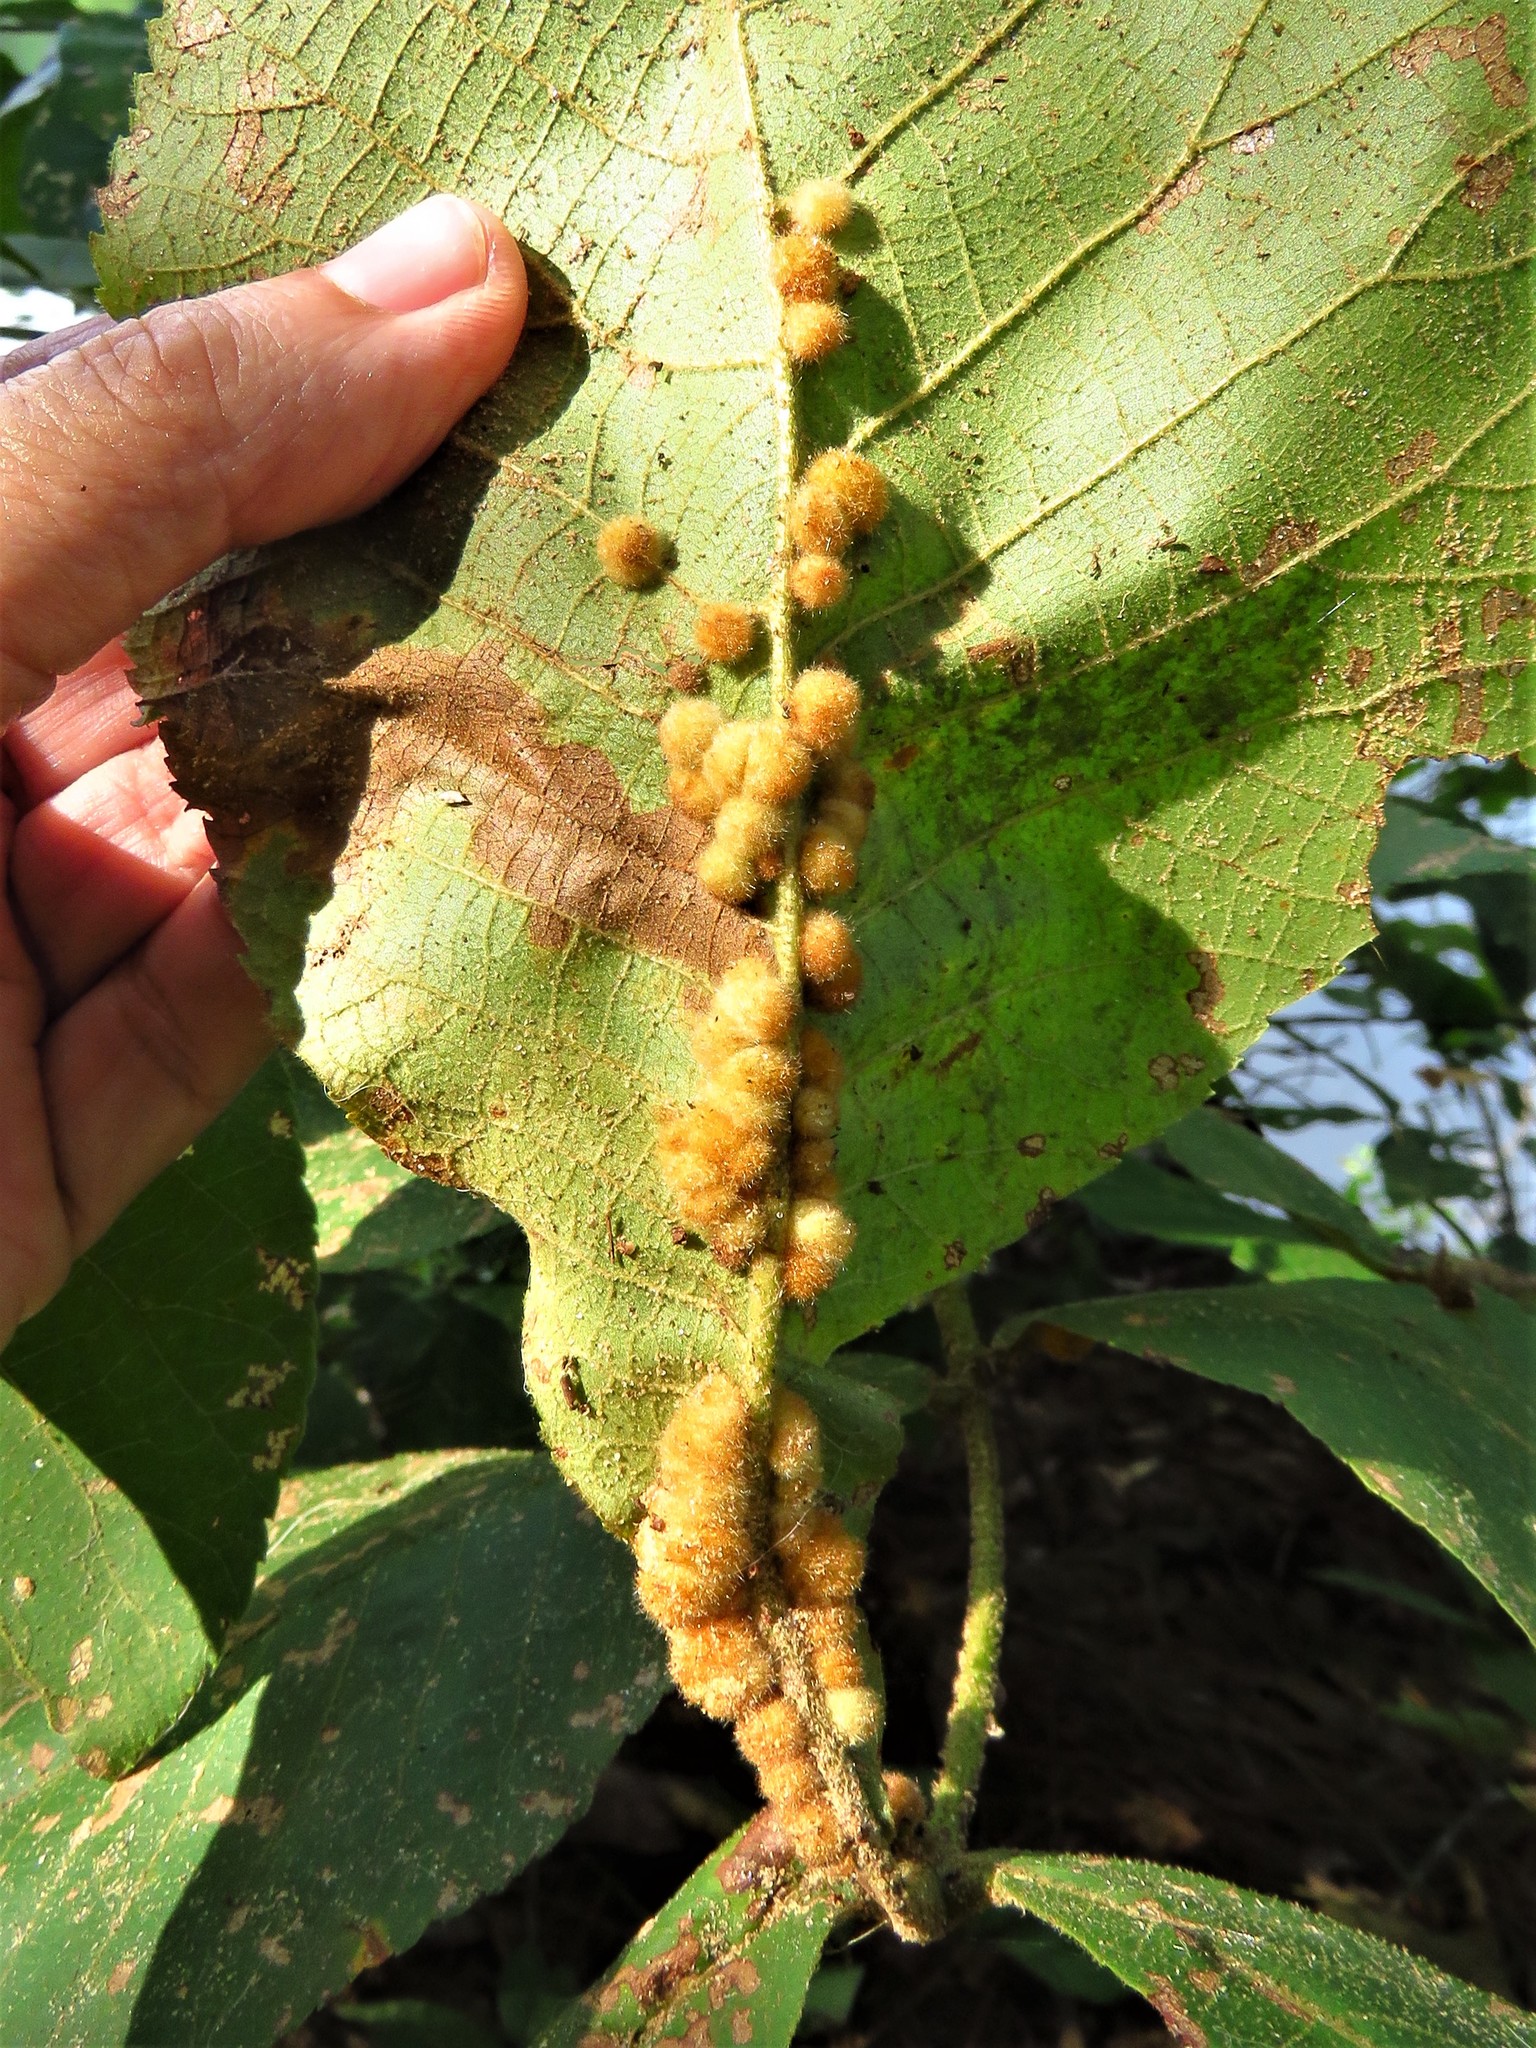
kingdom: Animalia
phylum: Arthropoda
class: Insecta
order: Diptera
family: Cecidomyiidae
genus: Caryomyia
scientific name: Caryomyia aggregata
